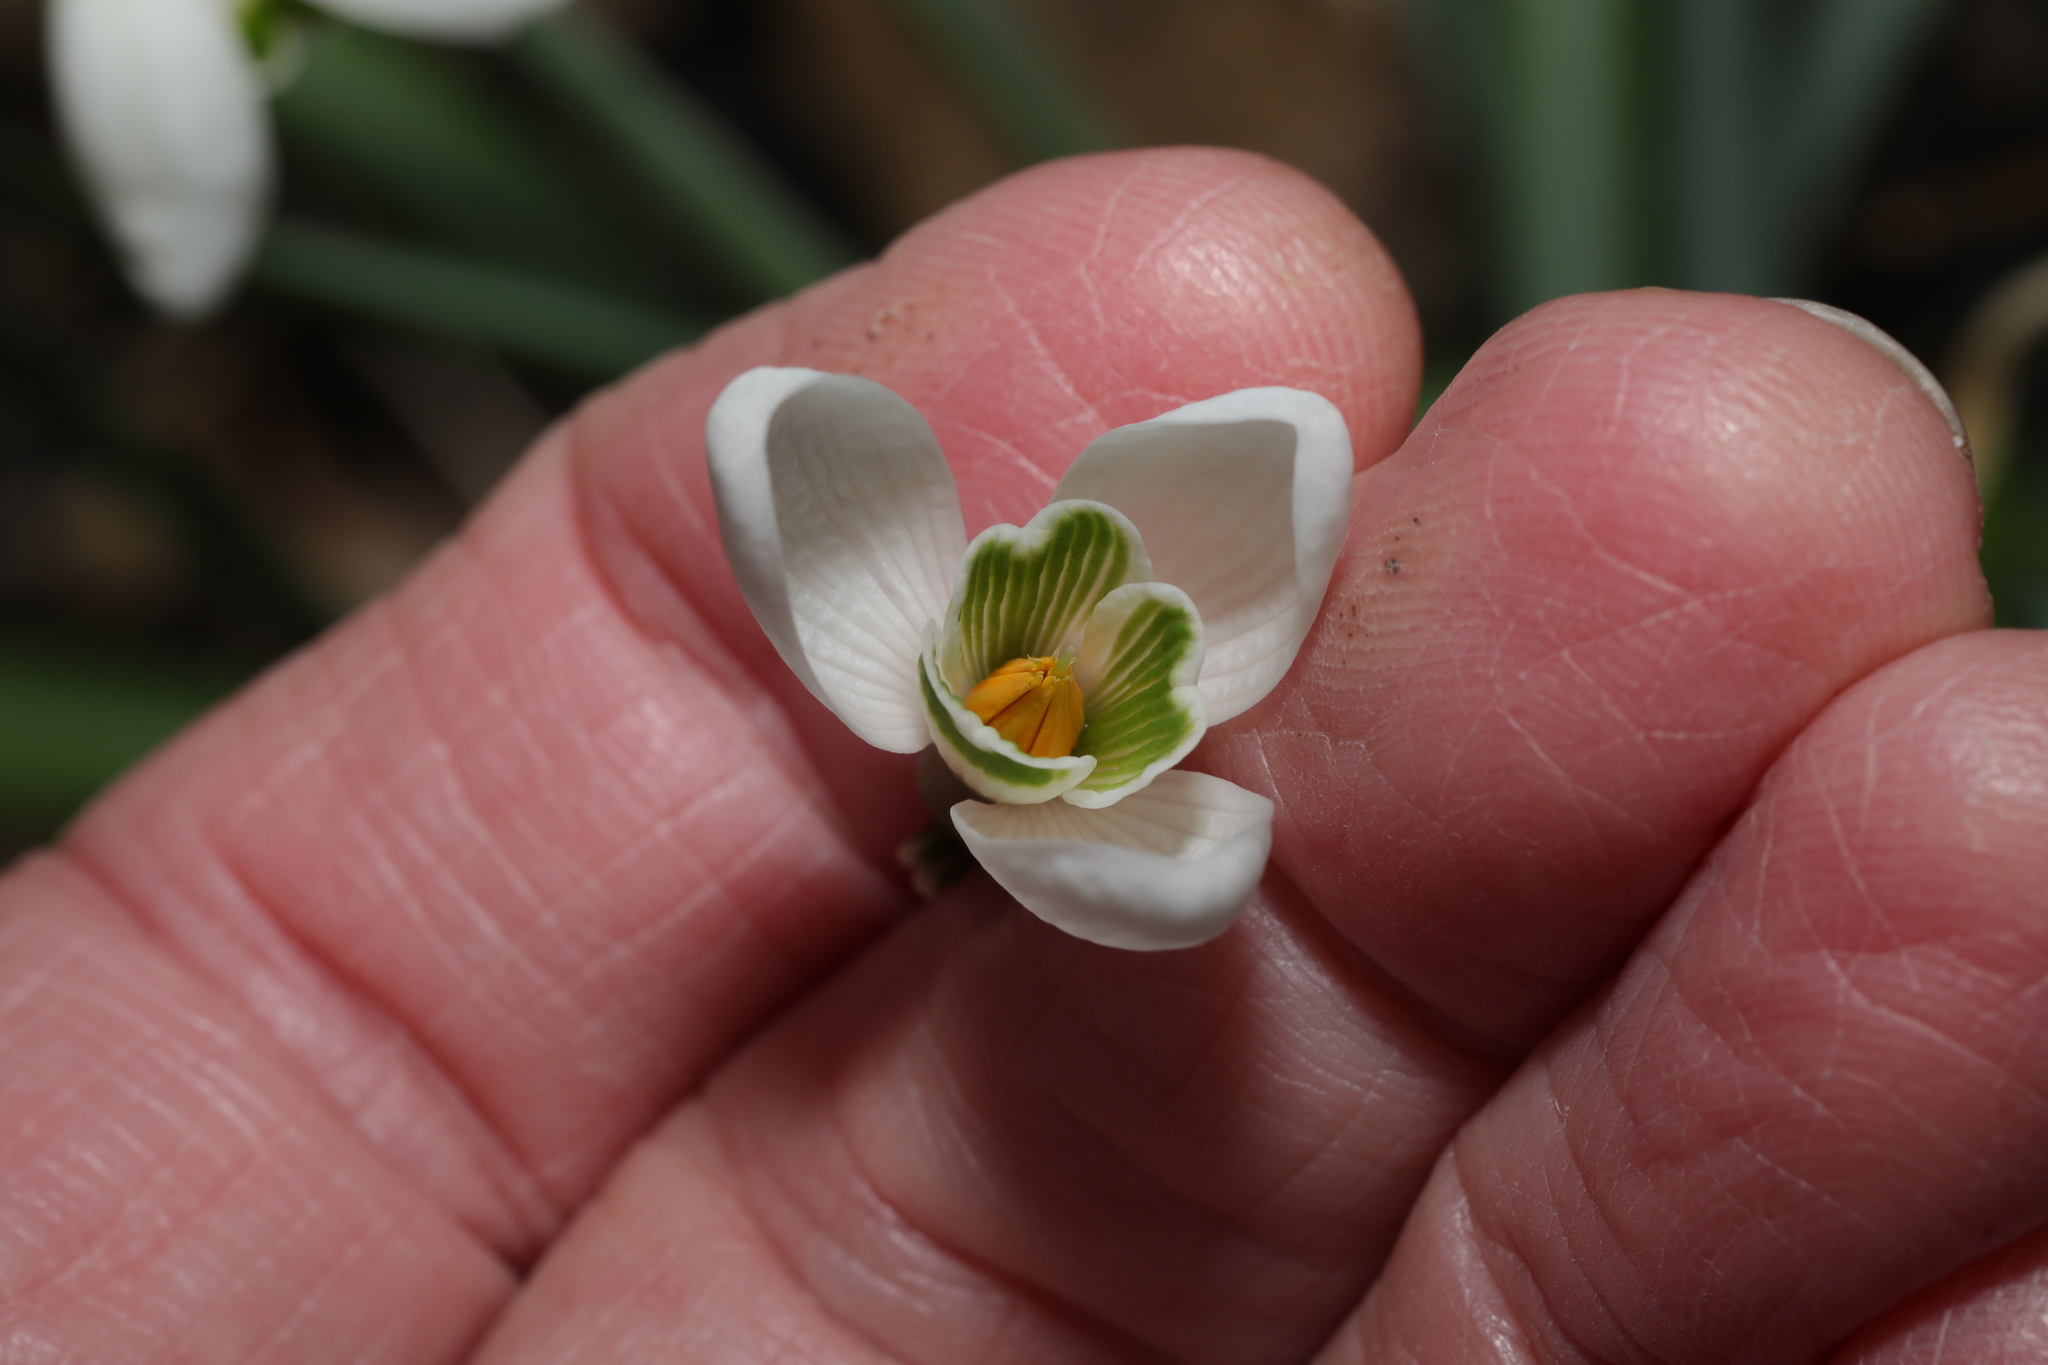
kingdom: Plantae
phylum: Tracheophyta
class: Liliopsida
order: Asparagales
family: Amaryllidaceae
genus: Galanthus
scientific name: Galanthus nivalis
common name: Snowdrop
